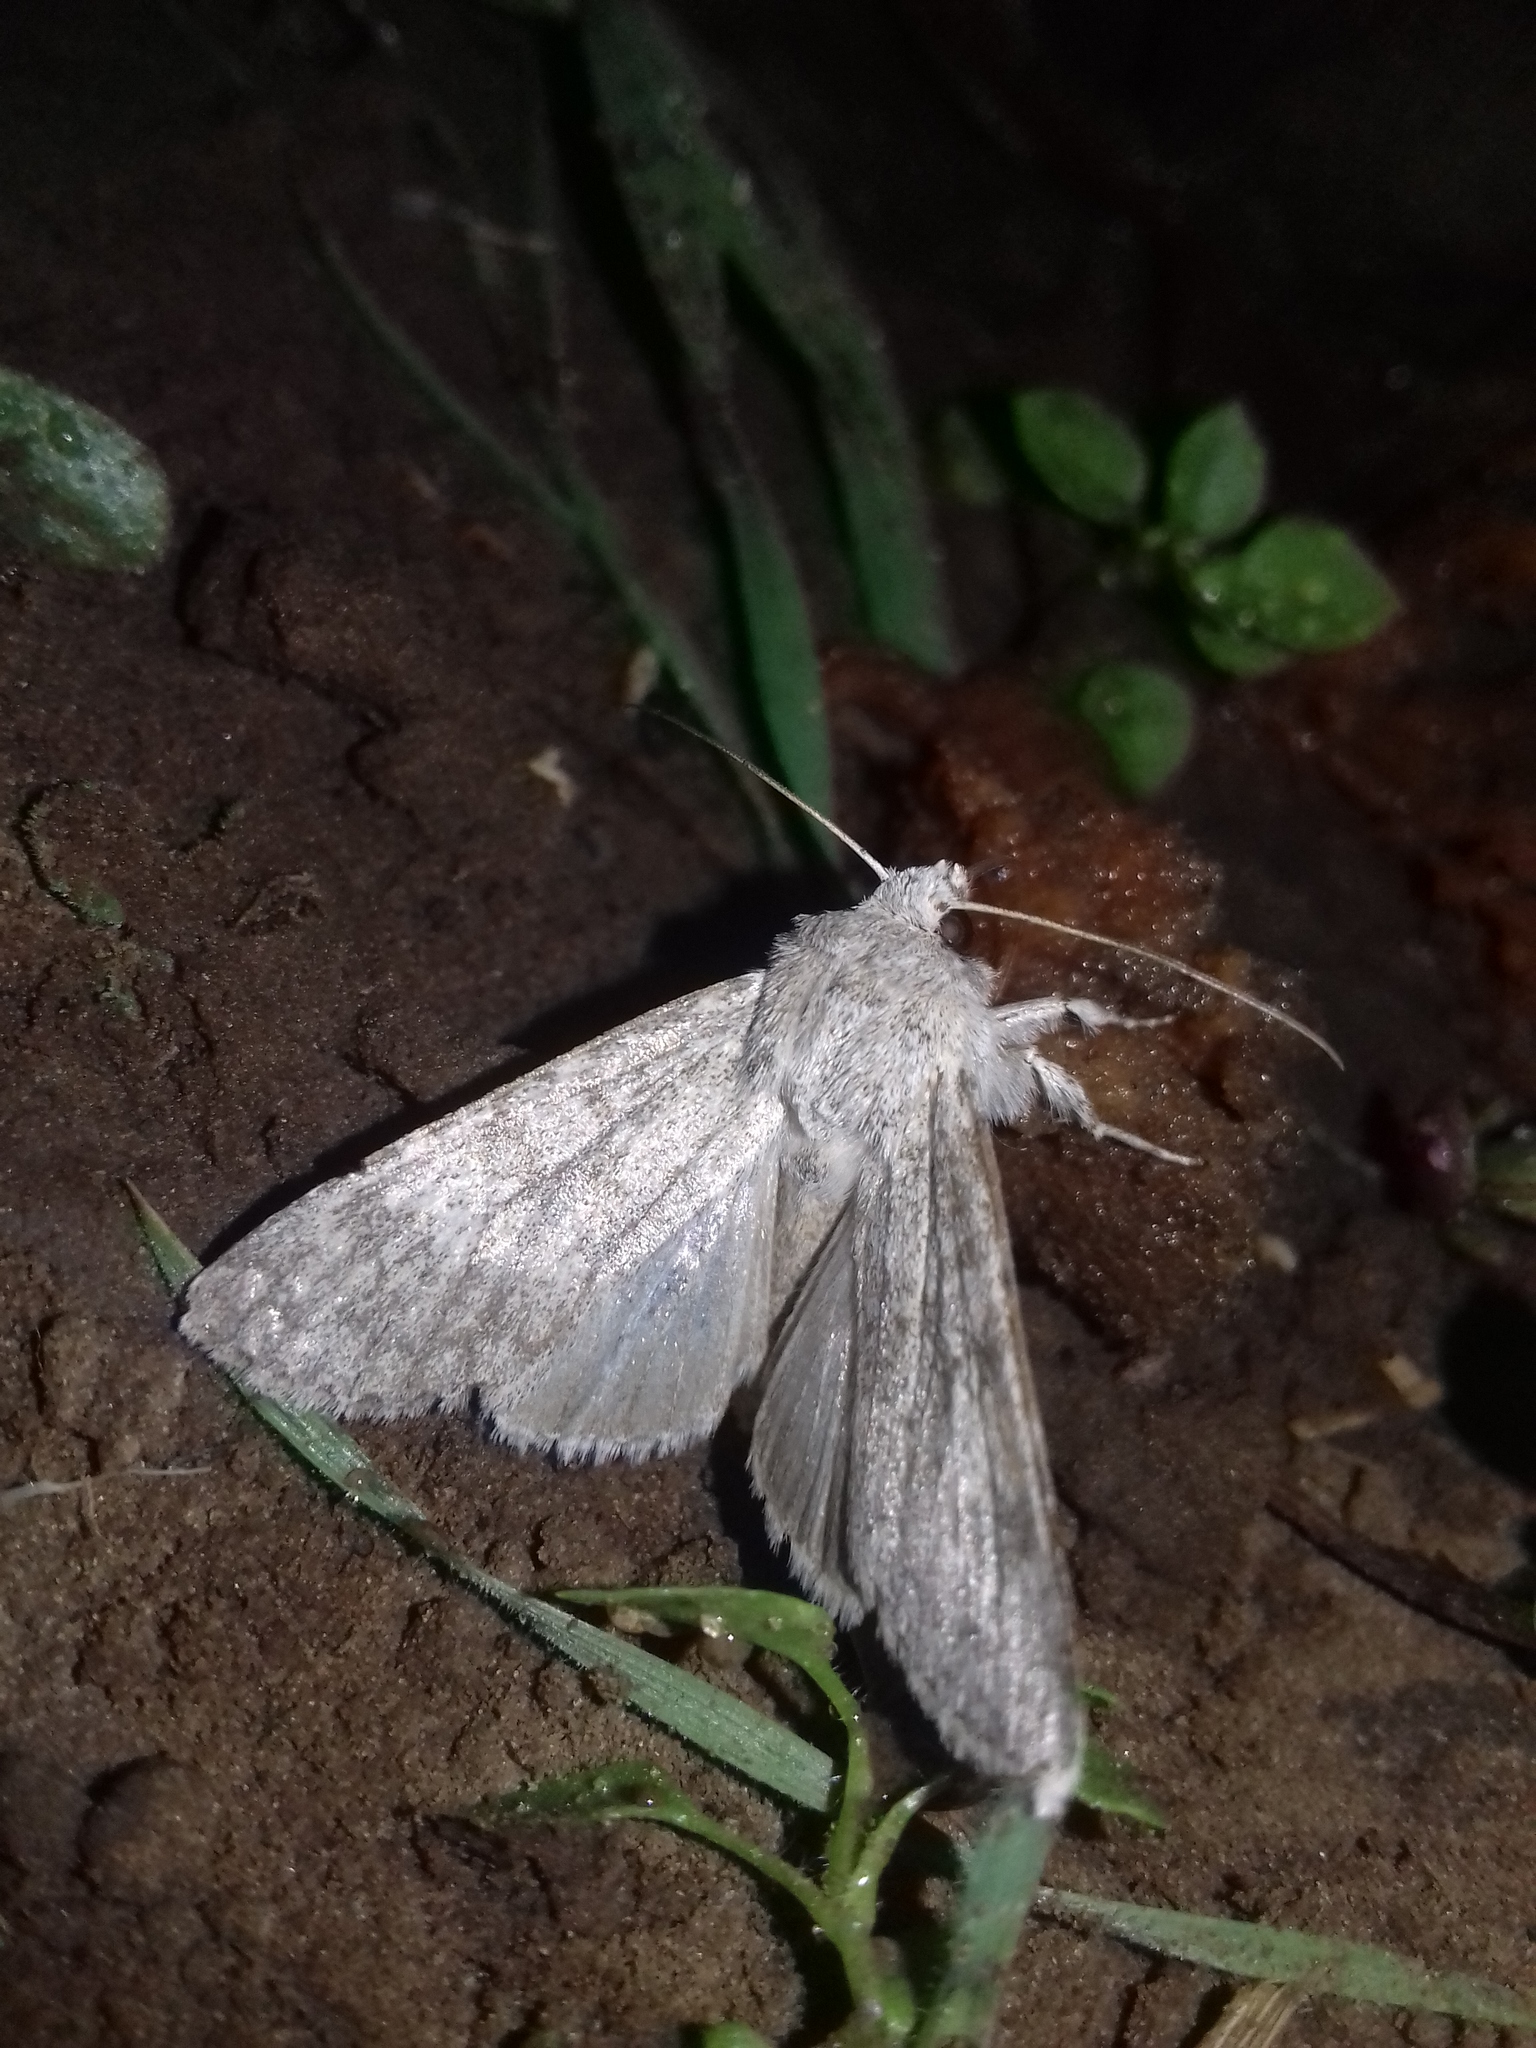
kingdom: Animalia
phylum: Arthropoda
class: Insecta
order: Lepidoptera
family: Noctuidae
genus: Ammoconia
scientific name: Ammoconia senex
